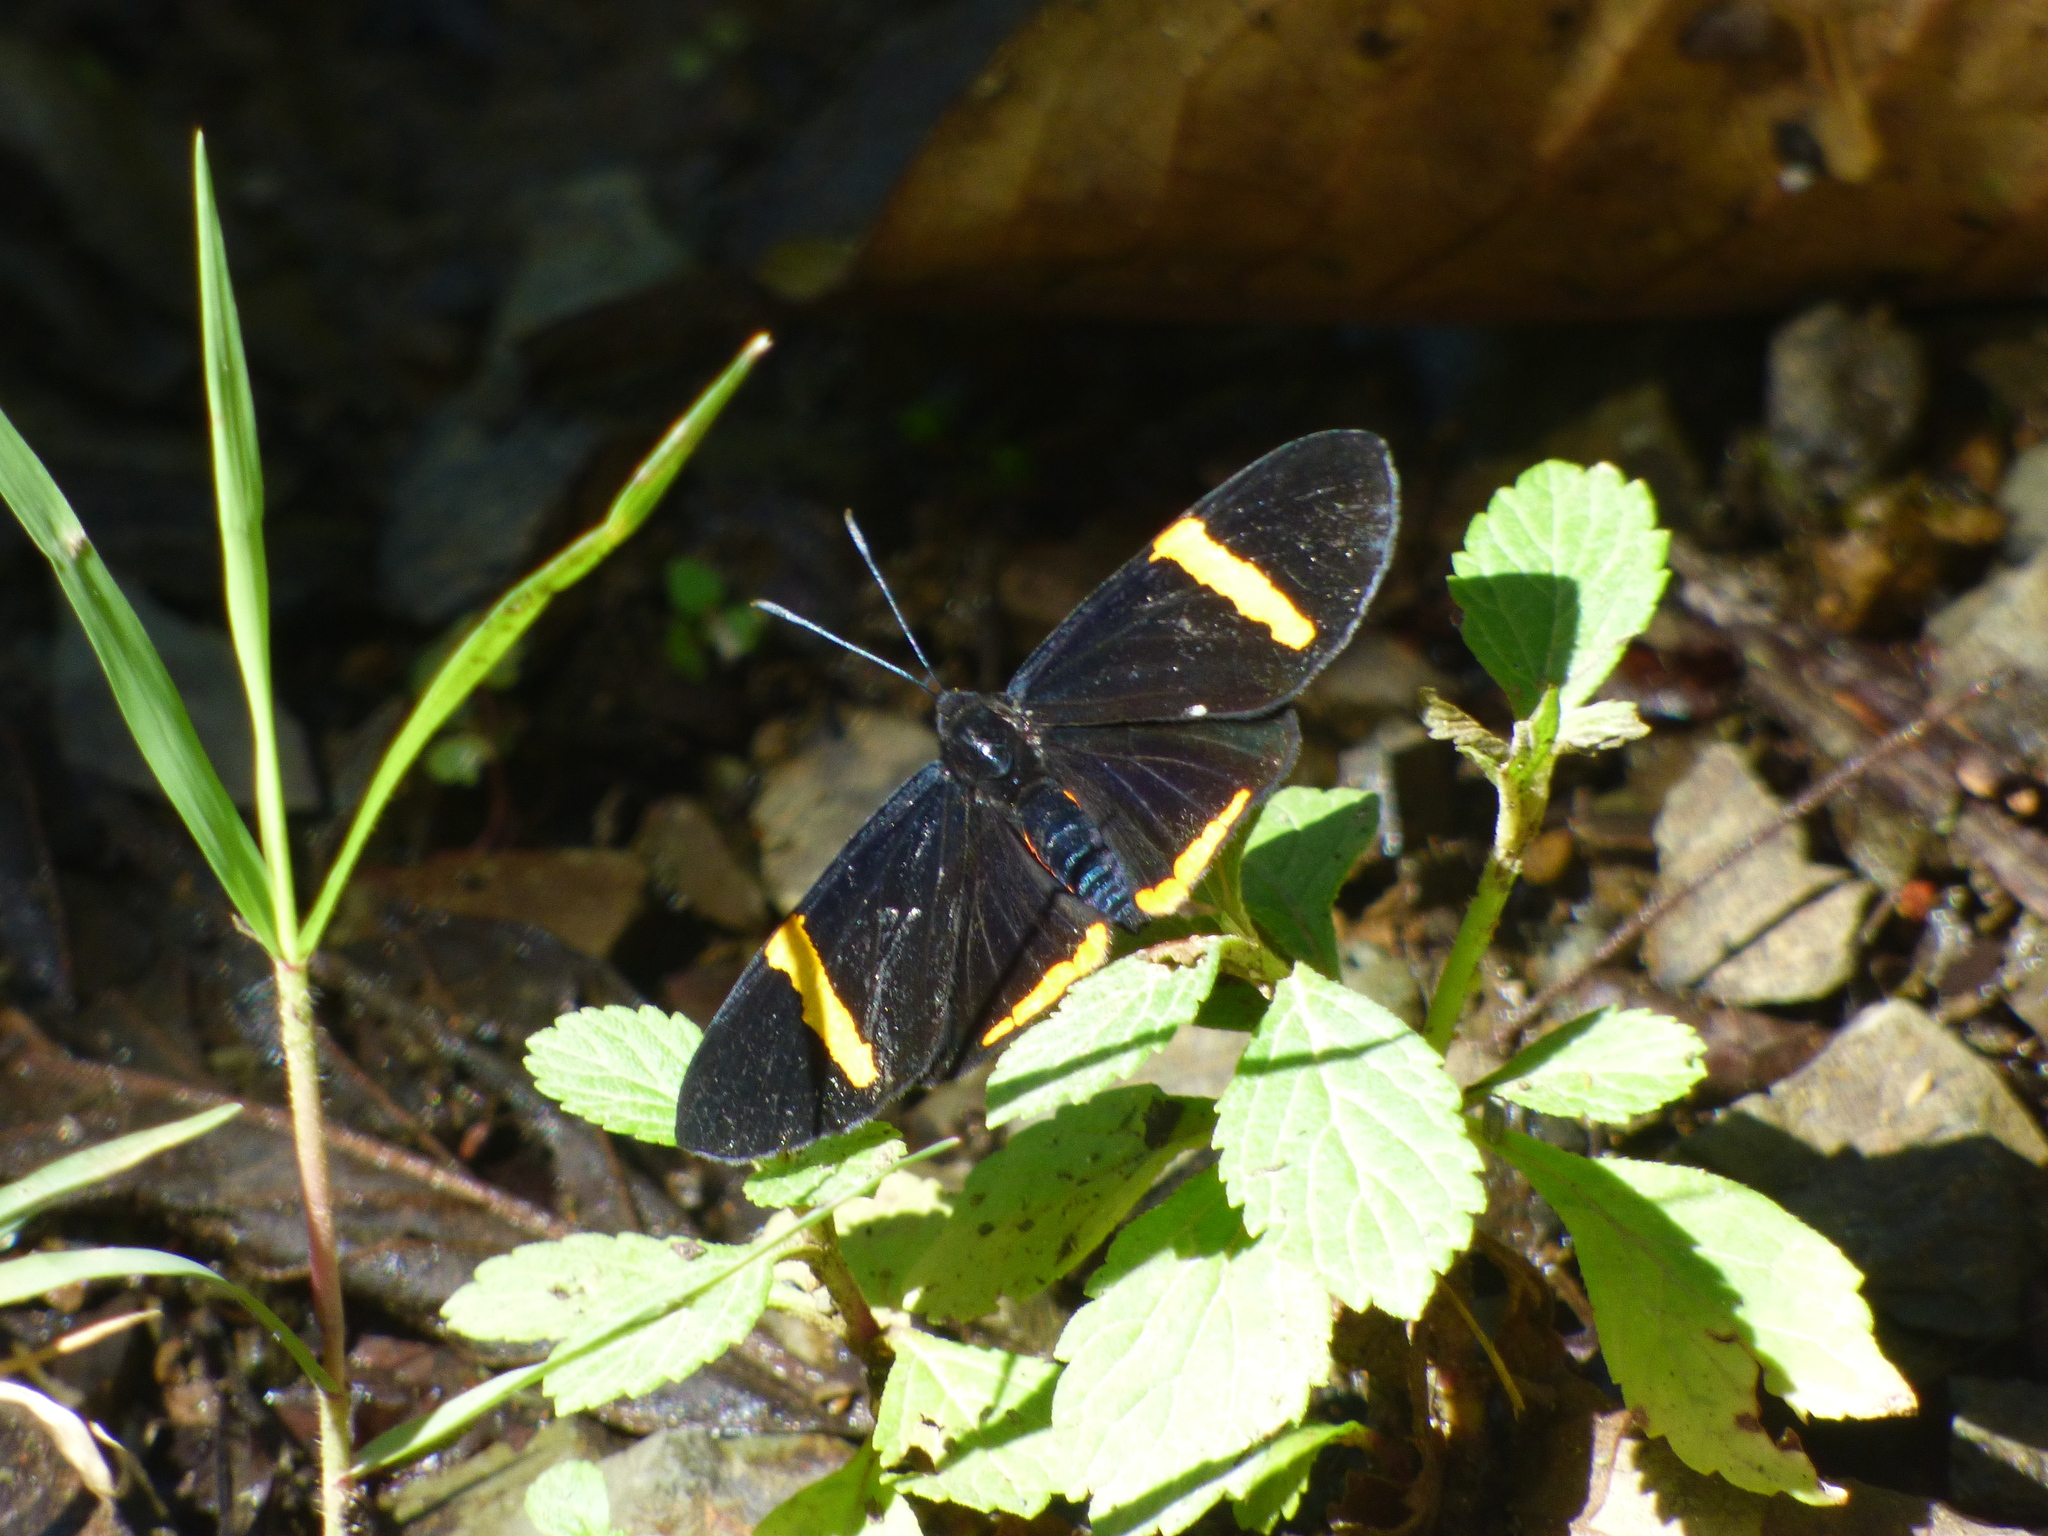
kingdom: Animalia
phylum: Arthropoda
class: Insecta
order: Lepidoptera
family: Lycaenidae
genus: Melanis
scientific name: Melanis
